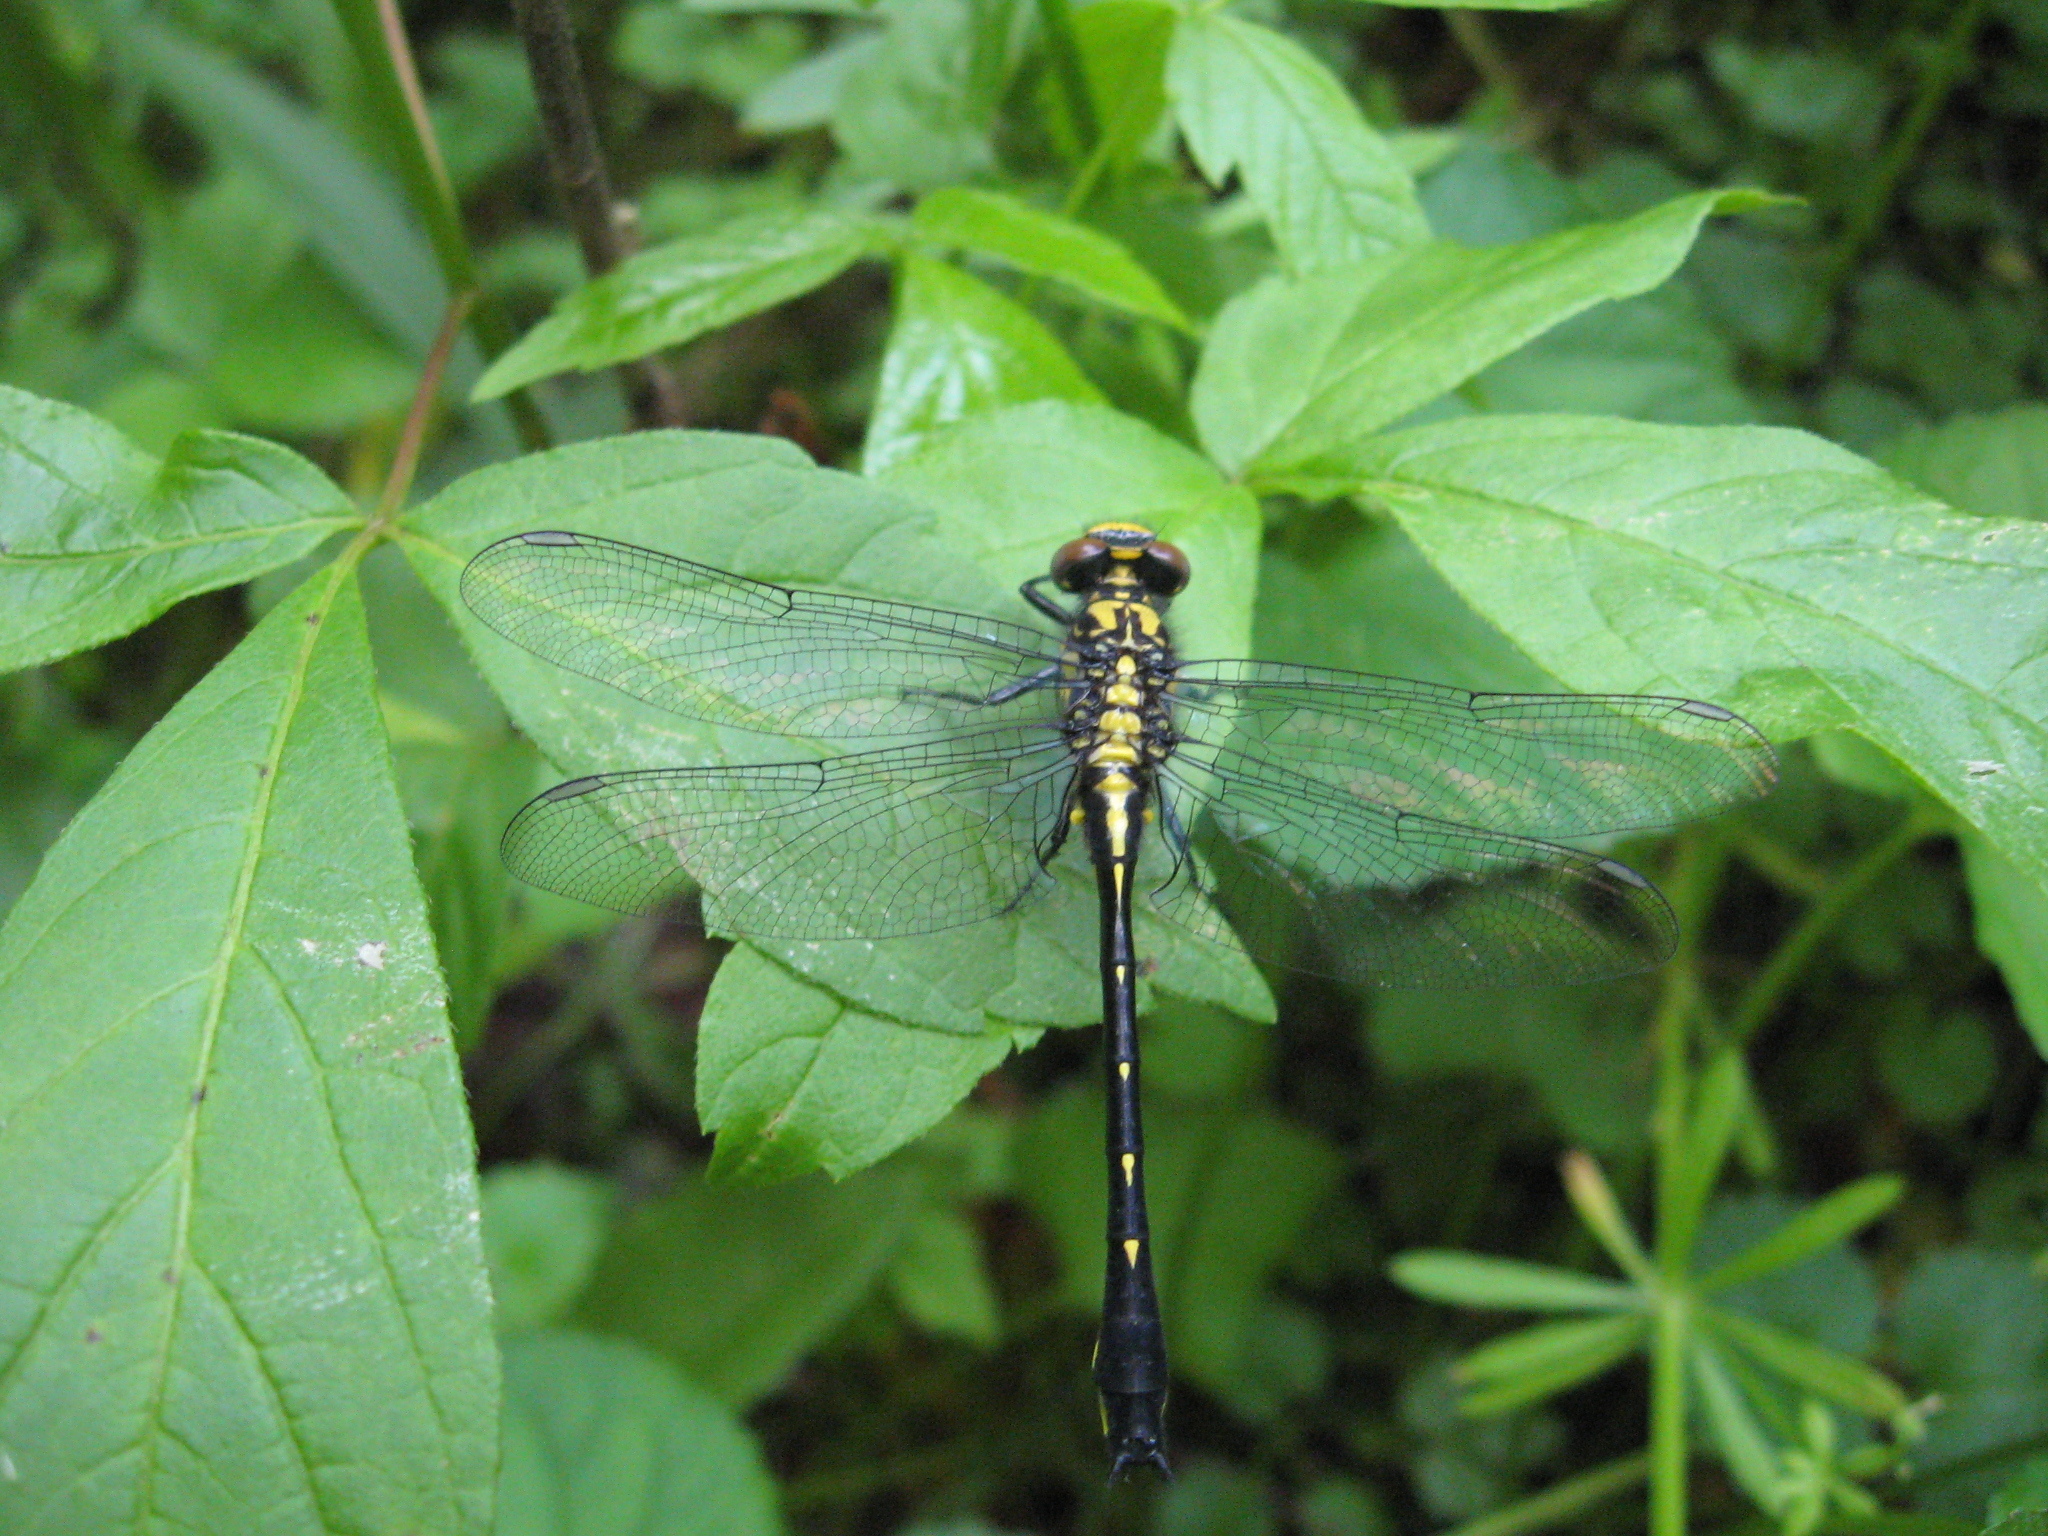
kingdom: Animalia
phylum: Arthropoda
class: Insecta
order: Odonata
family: Gomphidae
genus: Hylogomphus
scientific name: Hylogomphus viridifrons
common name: Green-faced clubtail
